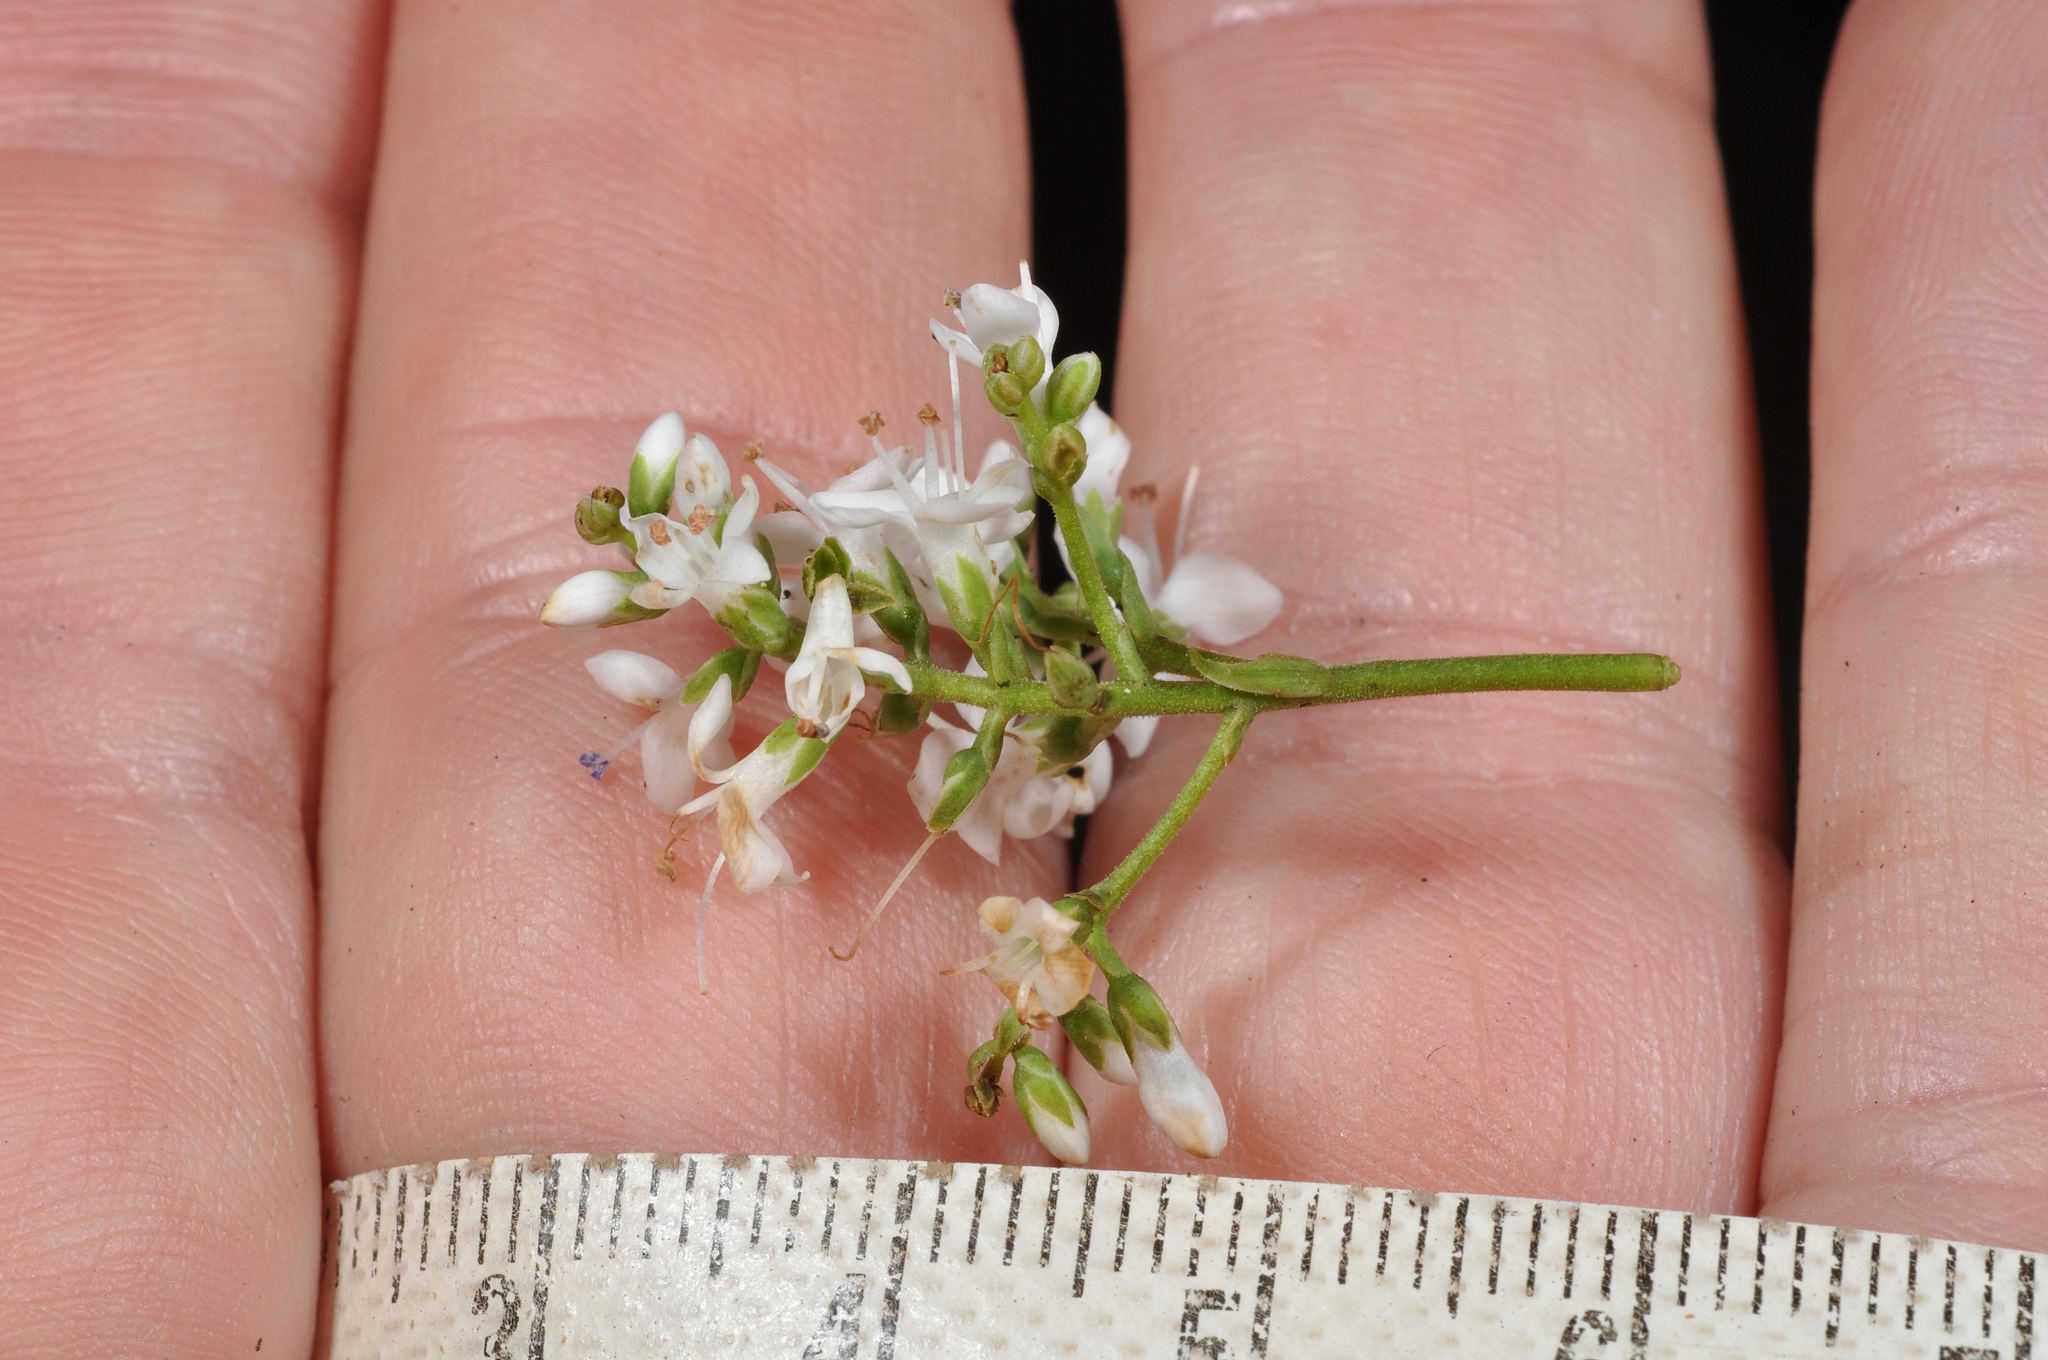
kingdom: Plantae
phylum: Tracheophyta
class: Magnoliopsida
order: Lamiales
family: Plantaginaceae
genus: Veronica
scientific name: Veronica subfulvida
